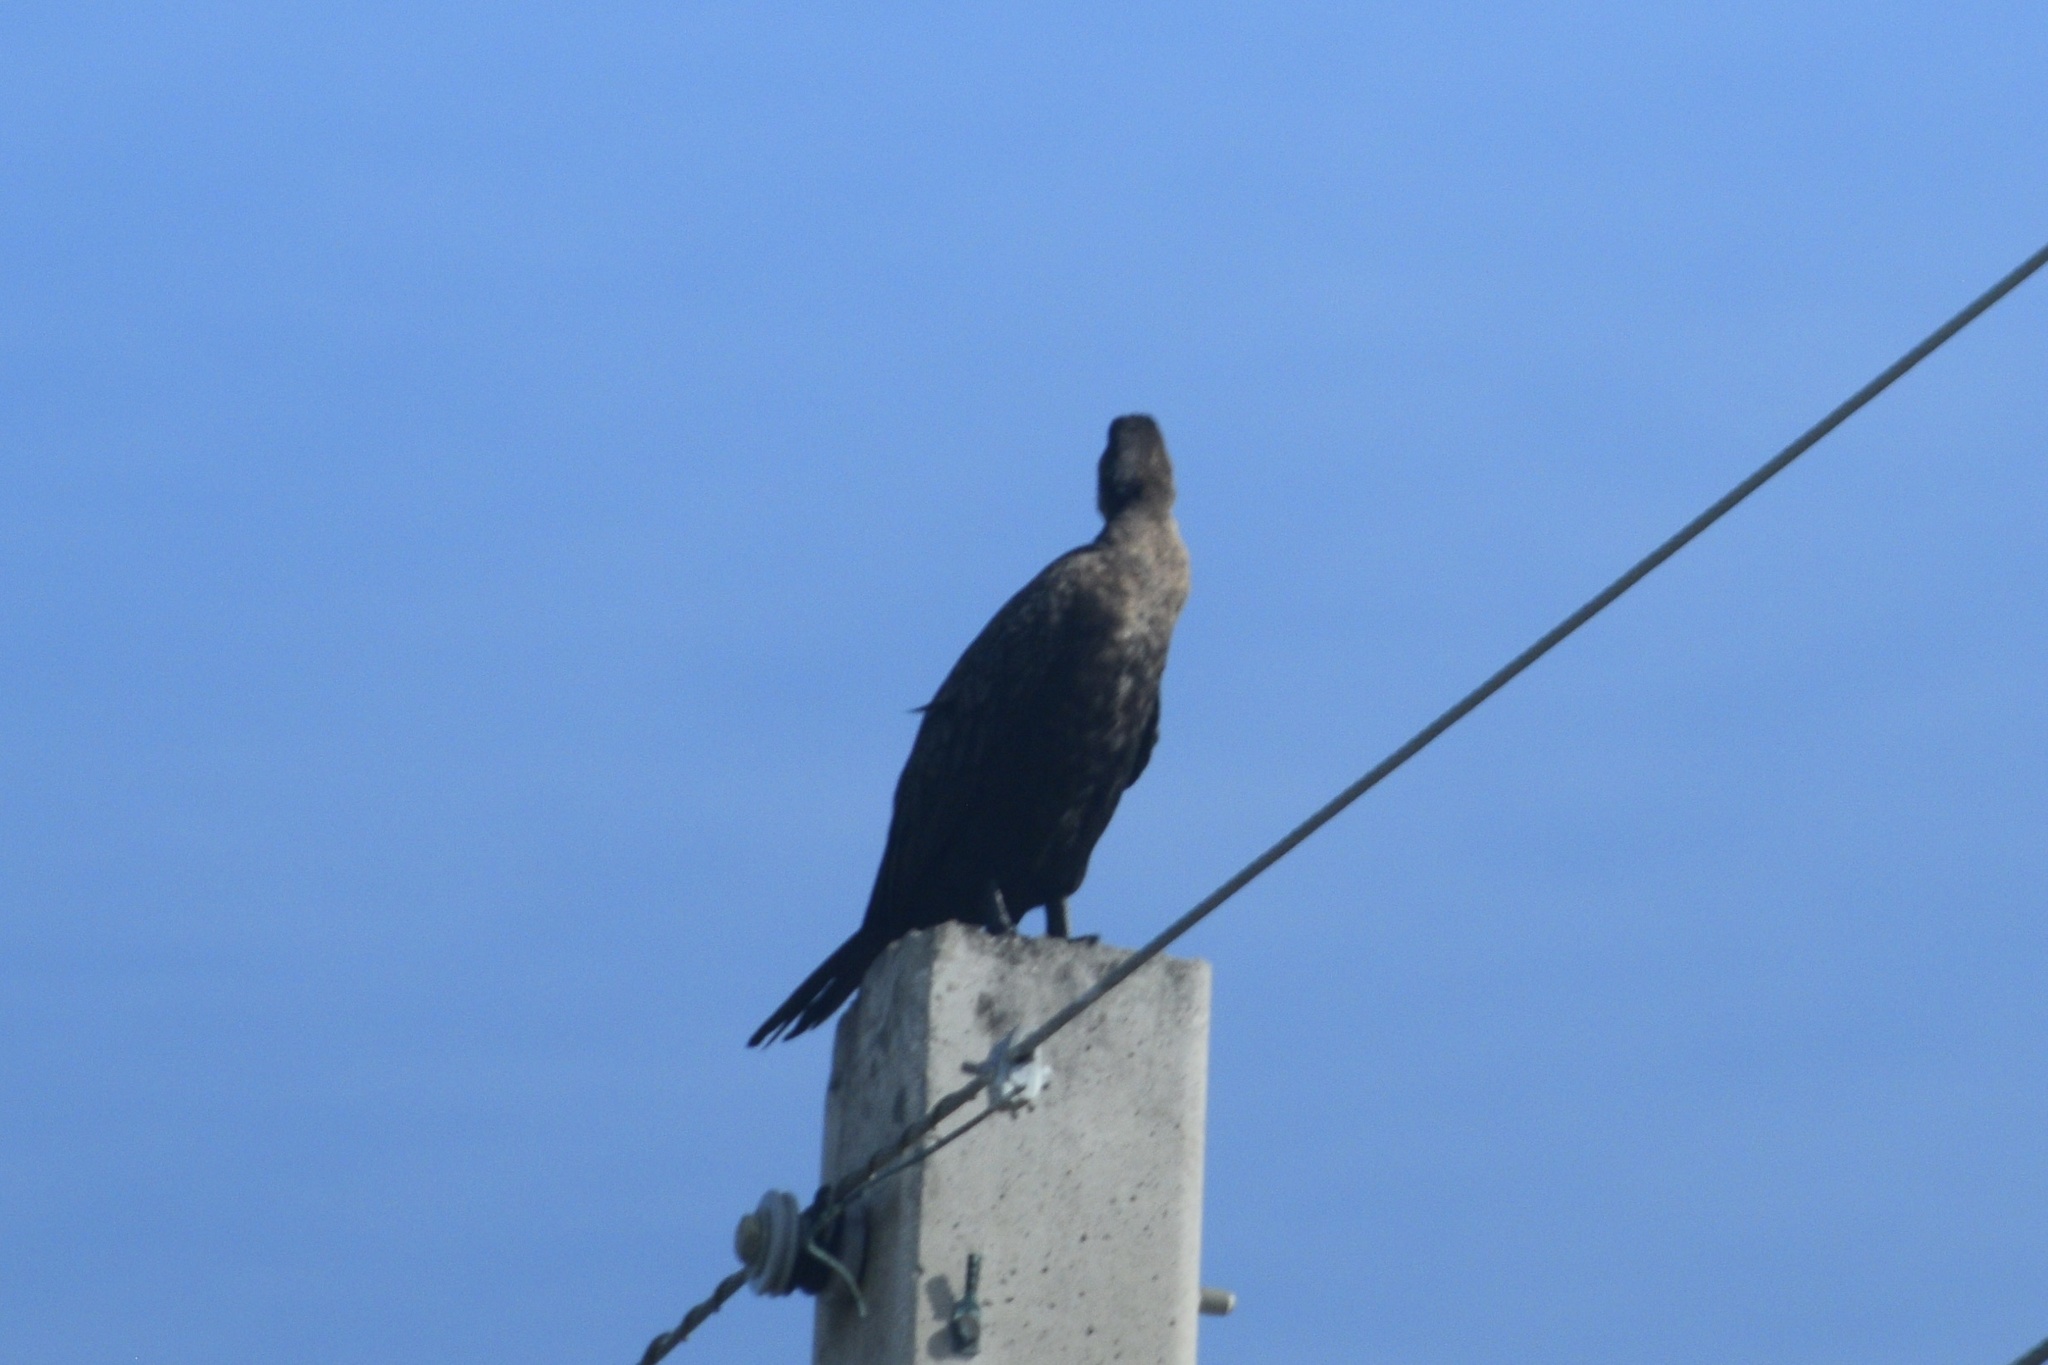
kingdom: Animalia
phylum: Chordata
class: Aves
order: Suliformes
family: Phalacrocoracidae
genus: Phalacrocorax
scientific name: Phalacrocorax auritus
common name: Double-crested cormorant
